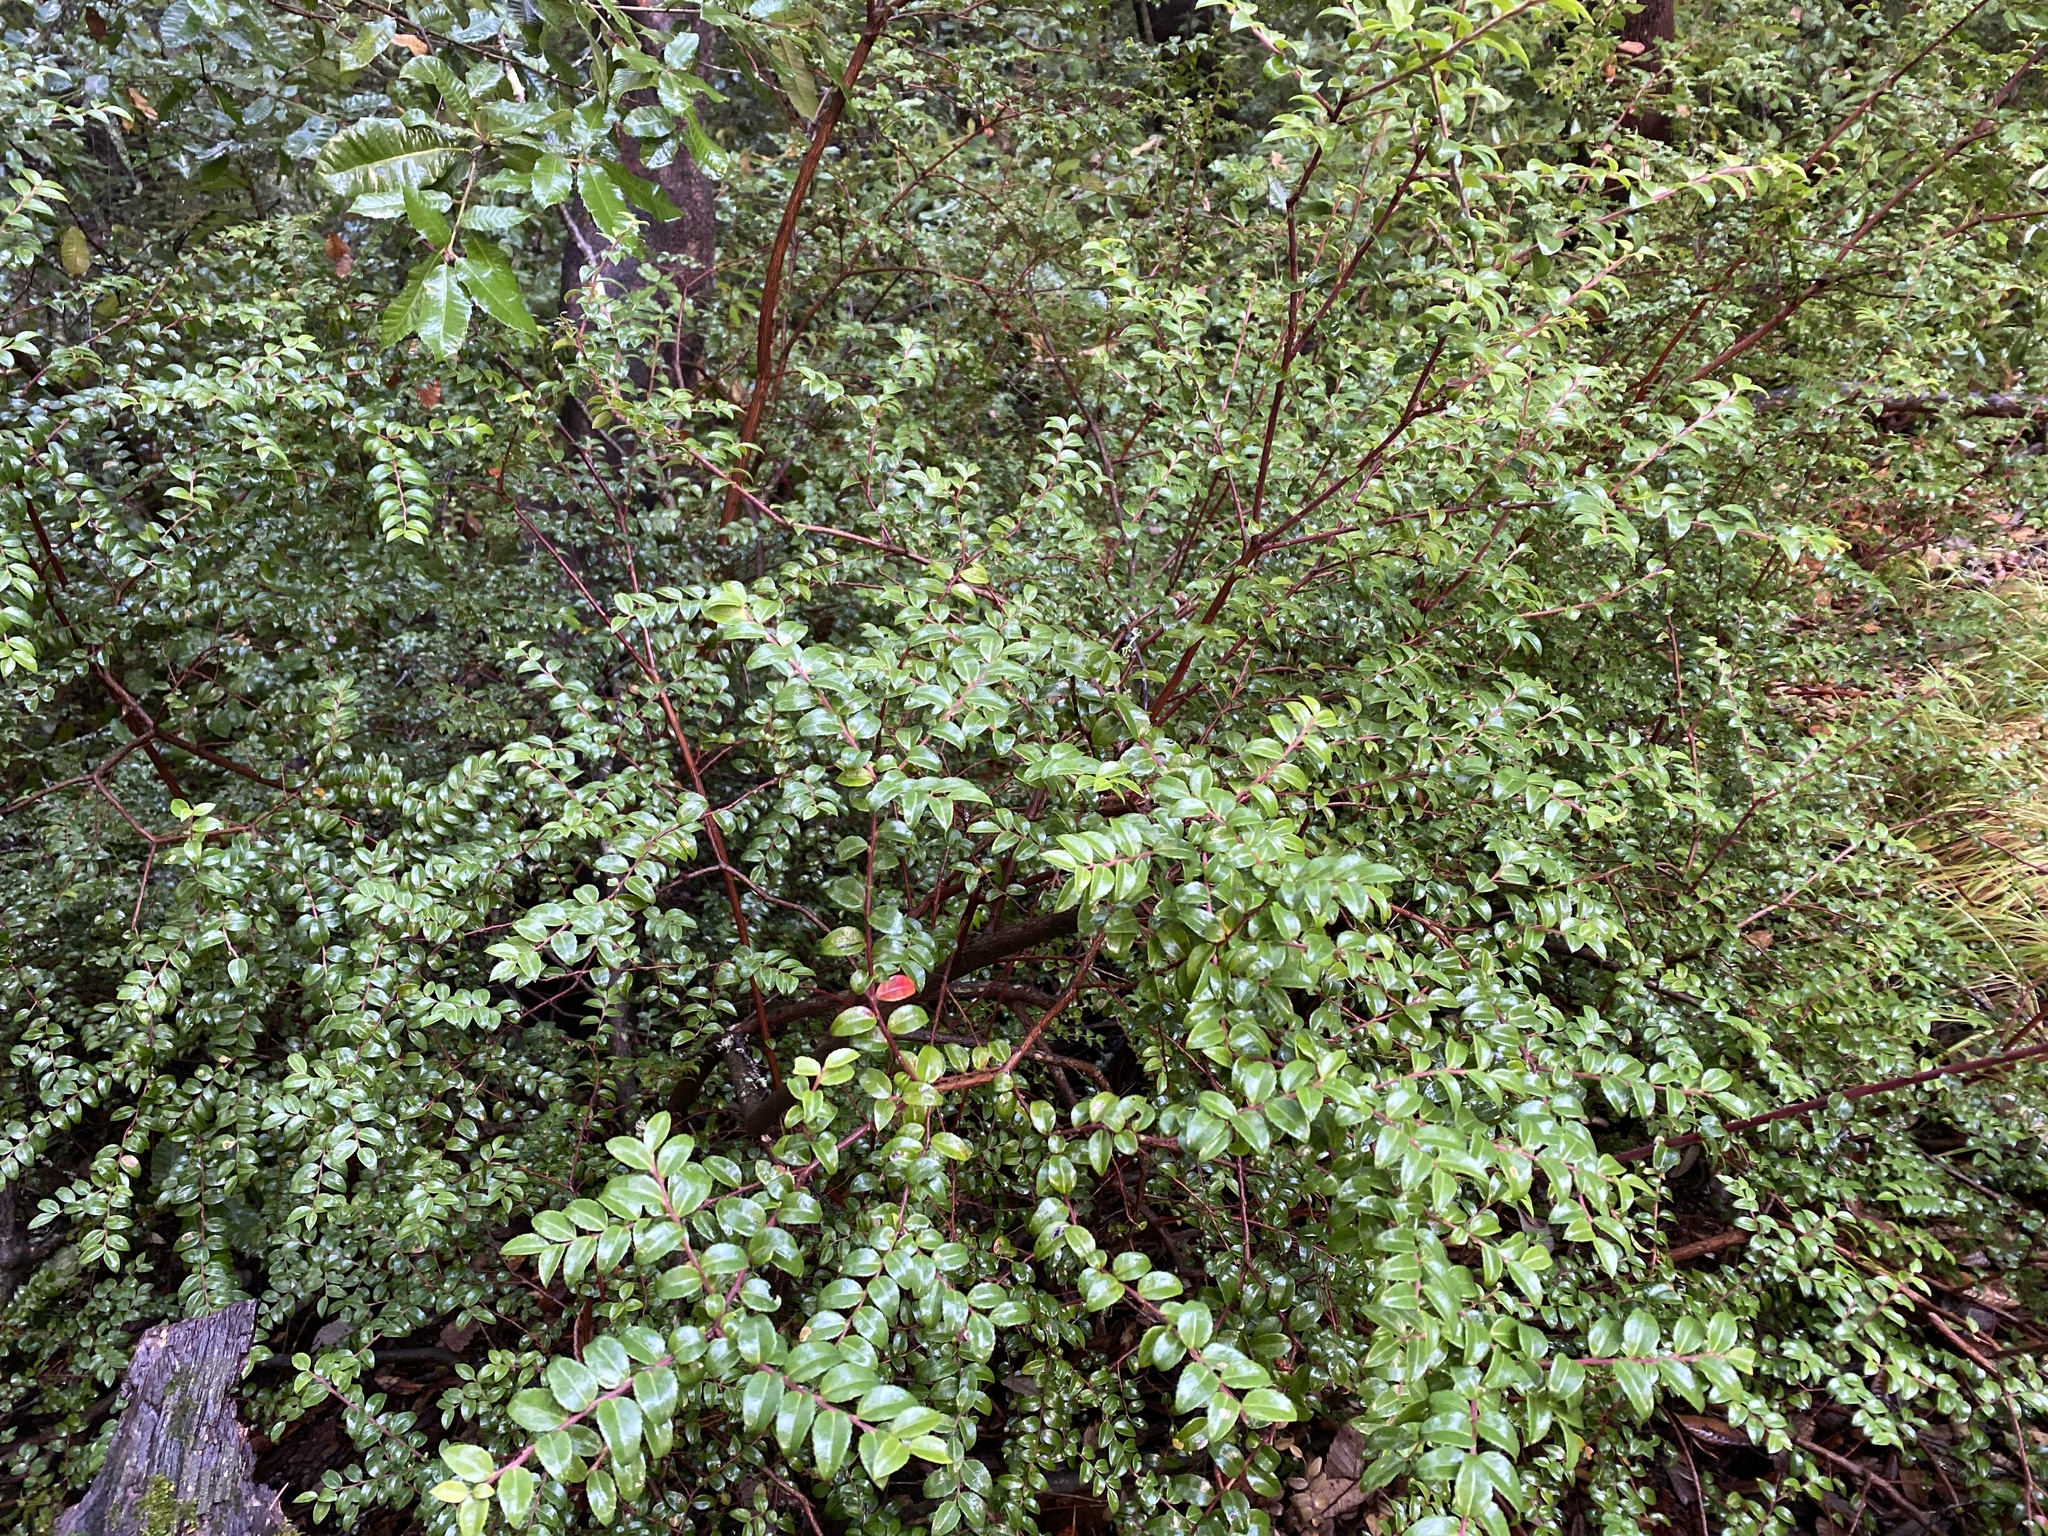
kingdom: Plantae
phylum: Tracheophyta
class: Magnoliopsida
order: Ericales
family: Ericaceae
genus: Vaccinium
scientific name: Vaccinium ovatum
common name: California-huckleberry
